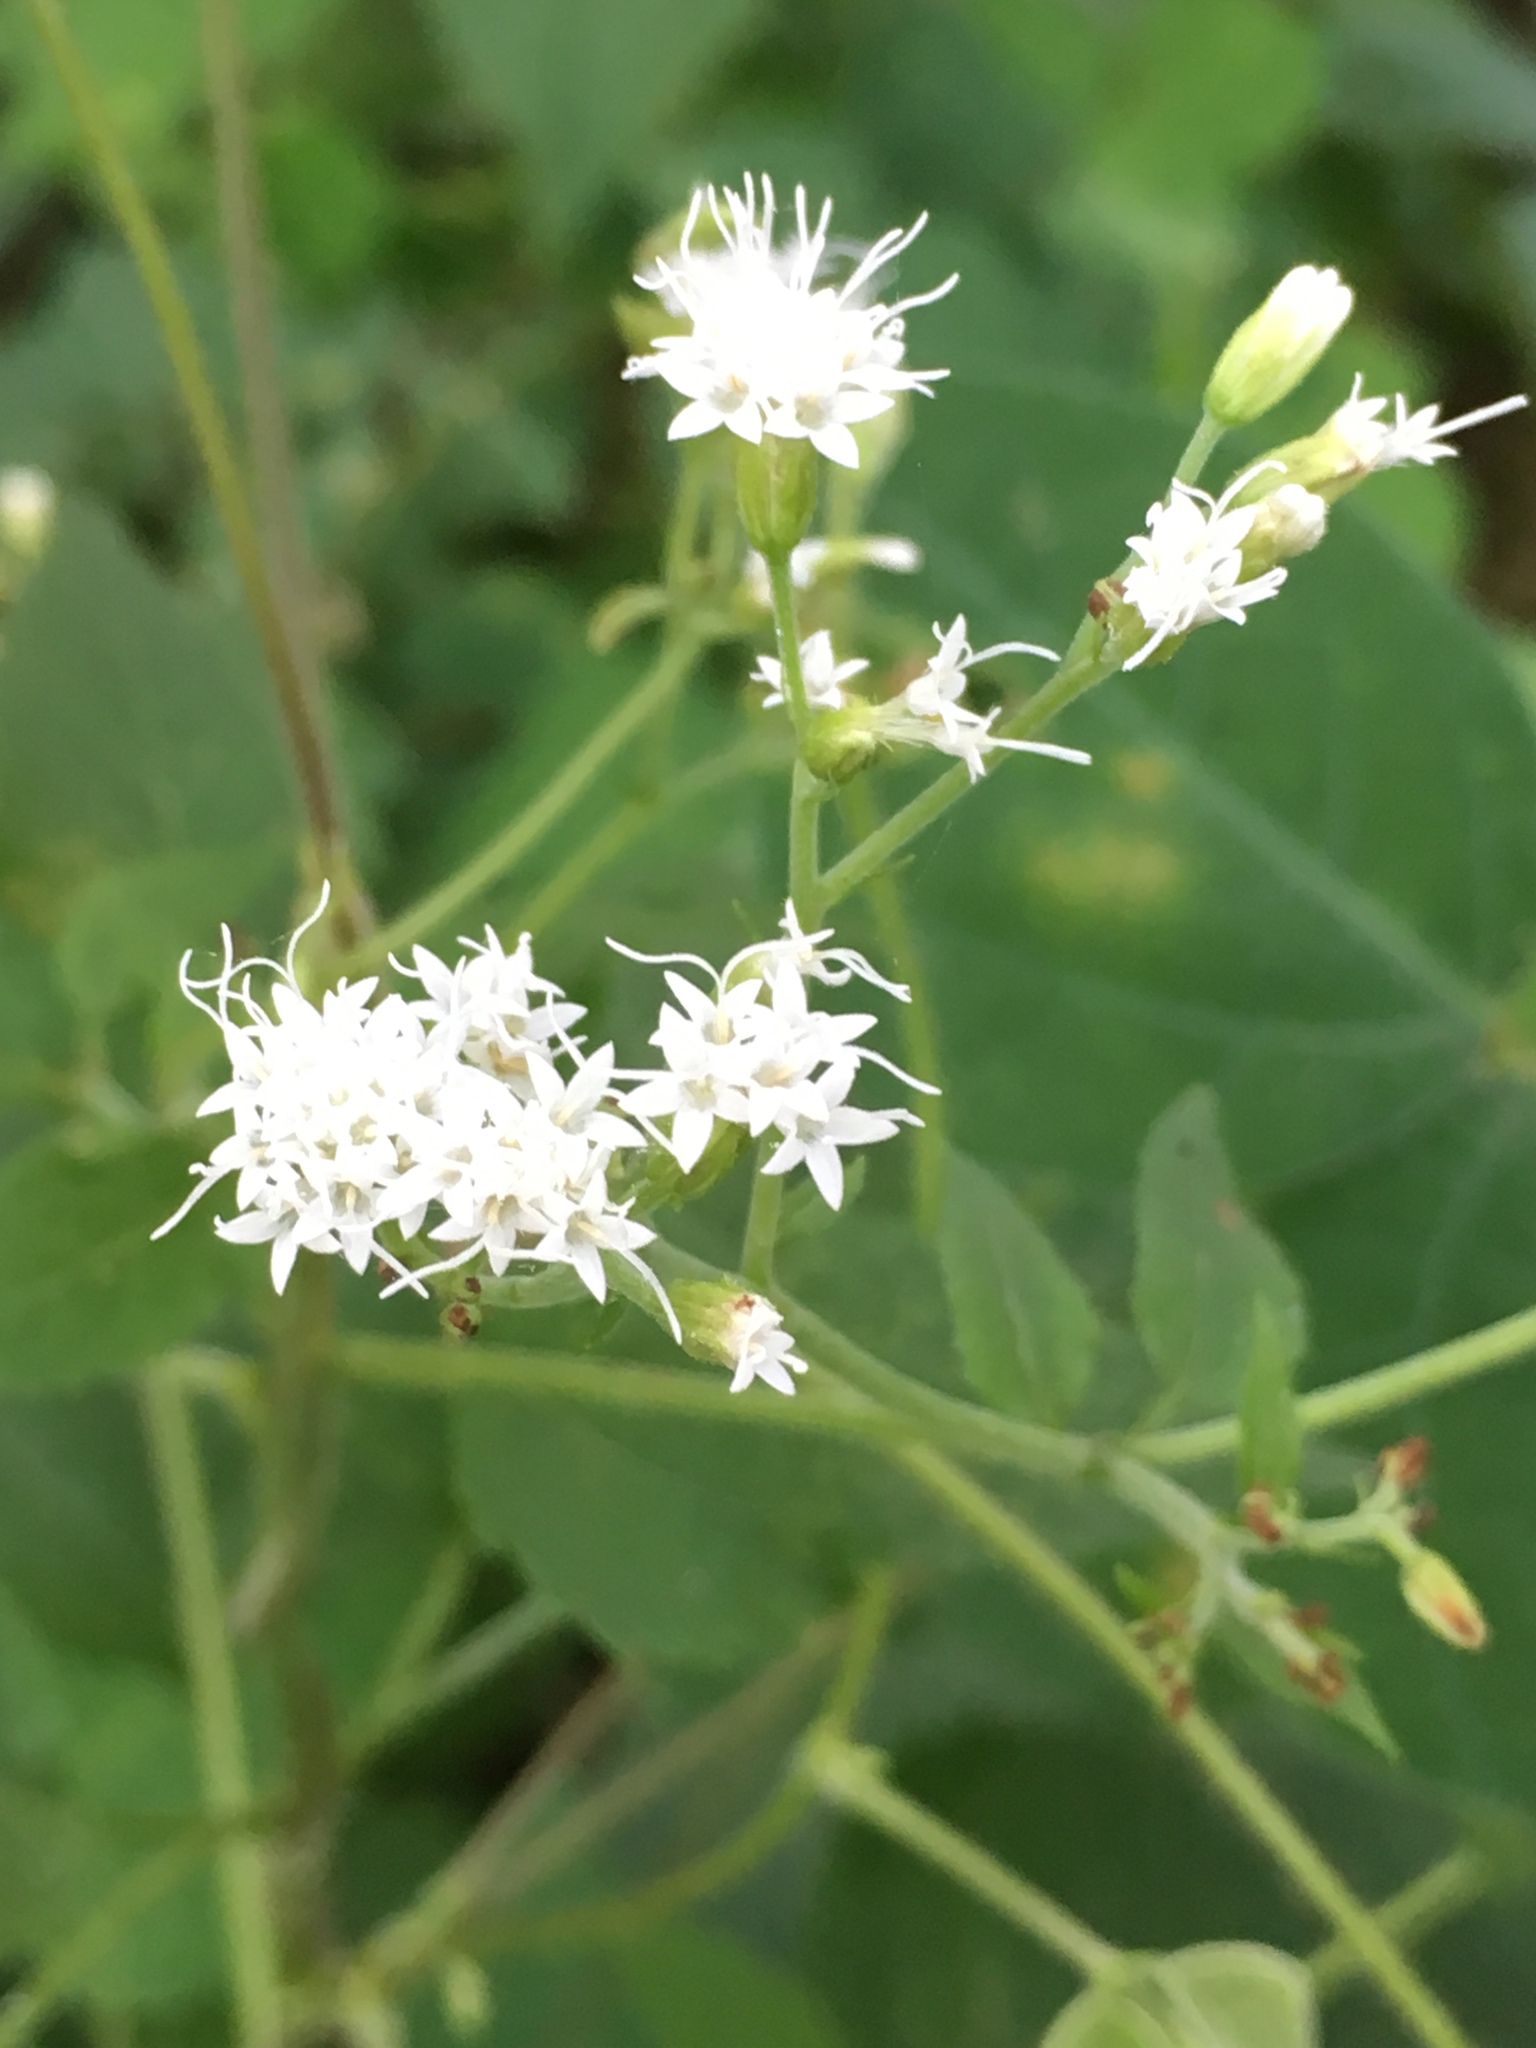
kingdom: Plantae
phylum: Tracheophyta
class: Magnoliopsida
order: Asterales
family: Asteraceae
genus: Ageratina
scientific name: Ageratina altissima
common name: White snakeroot
